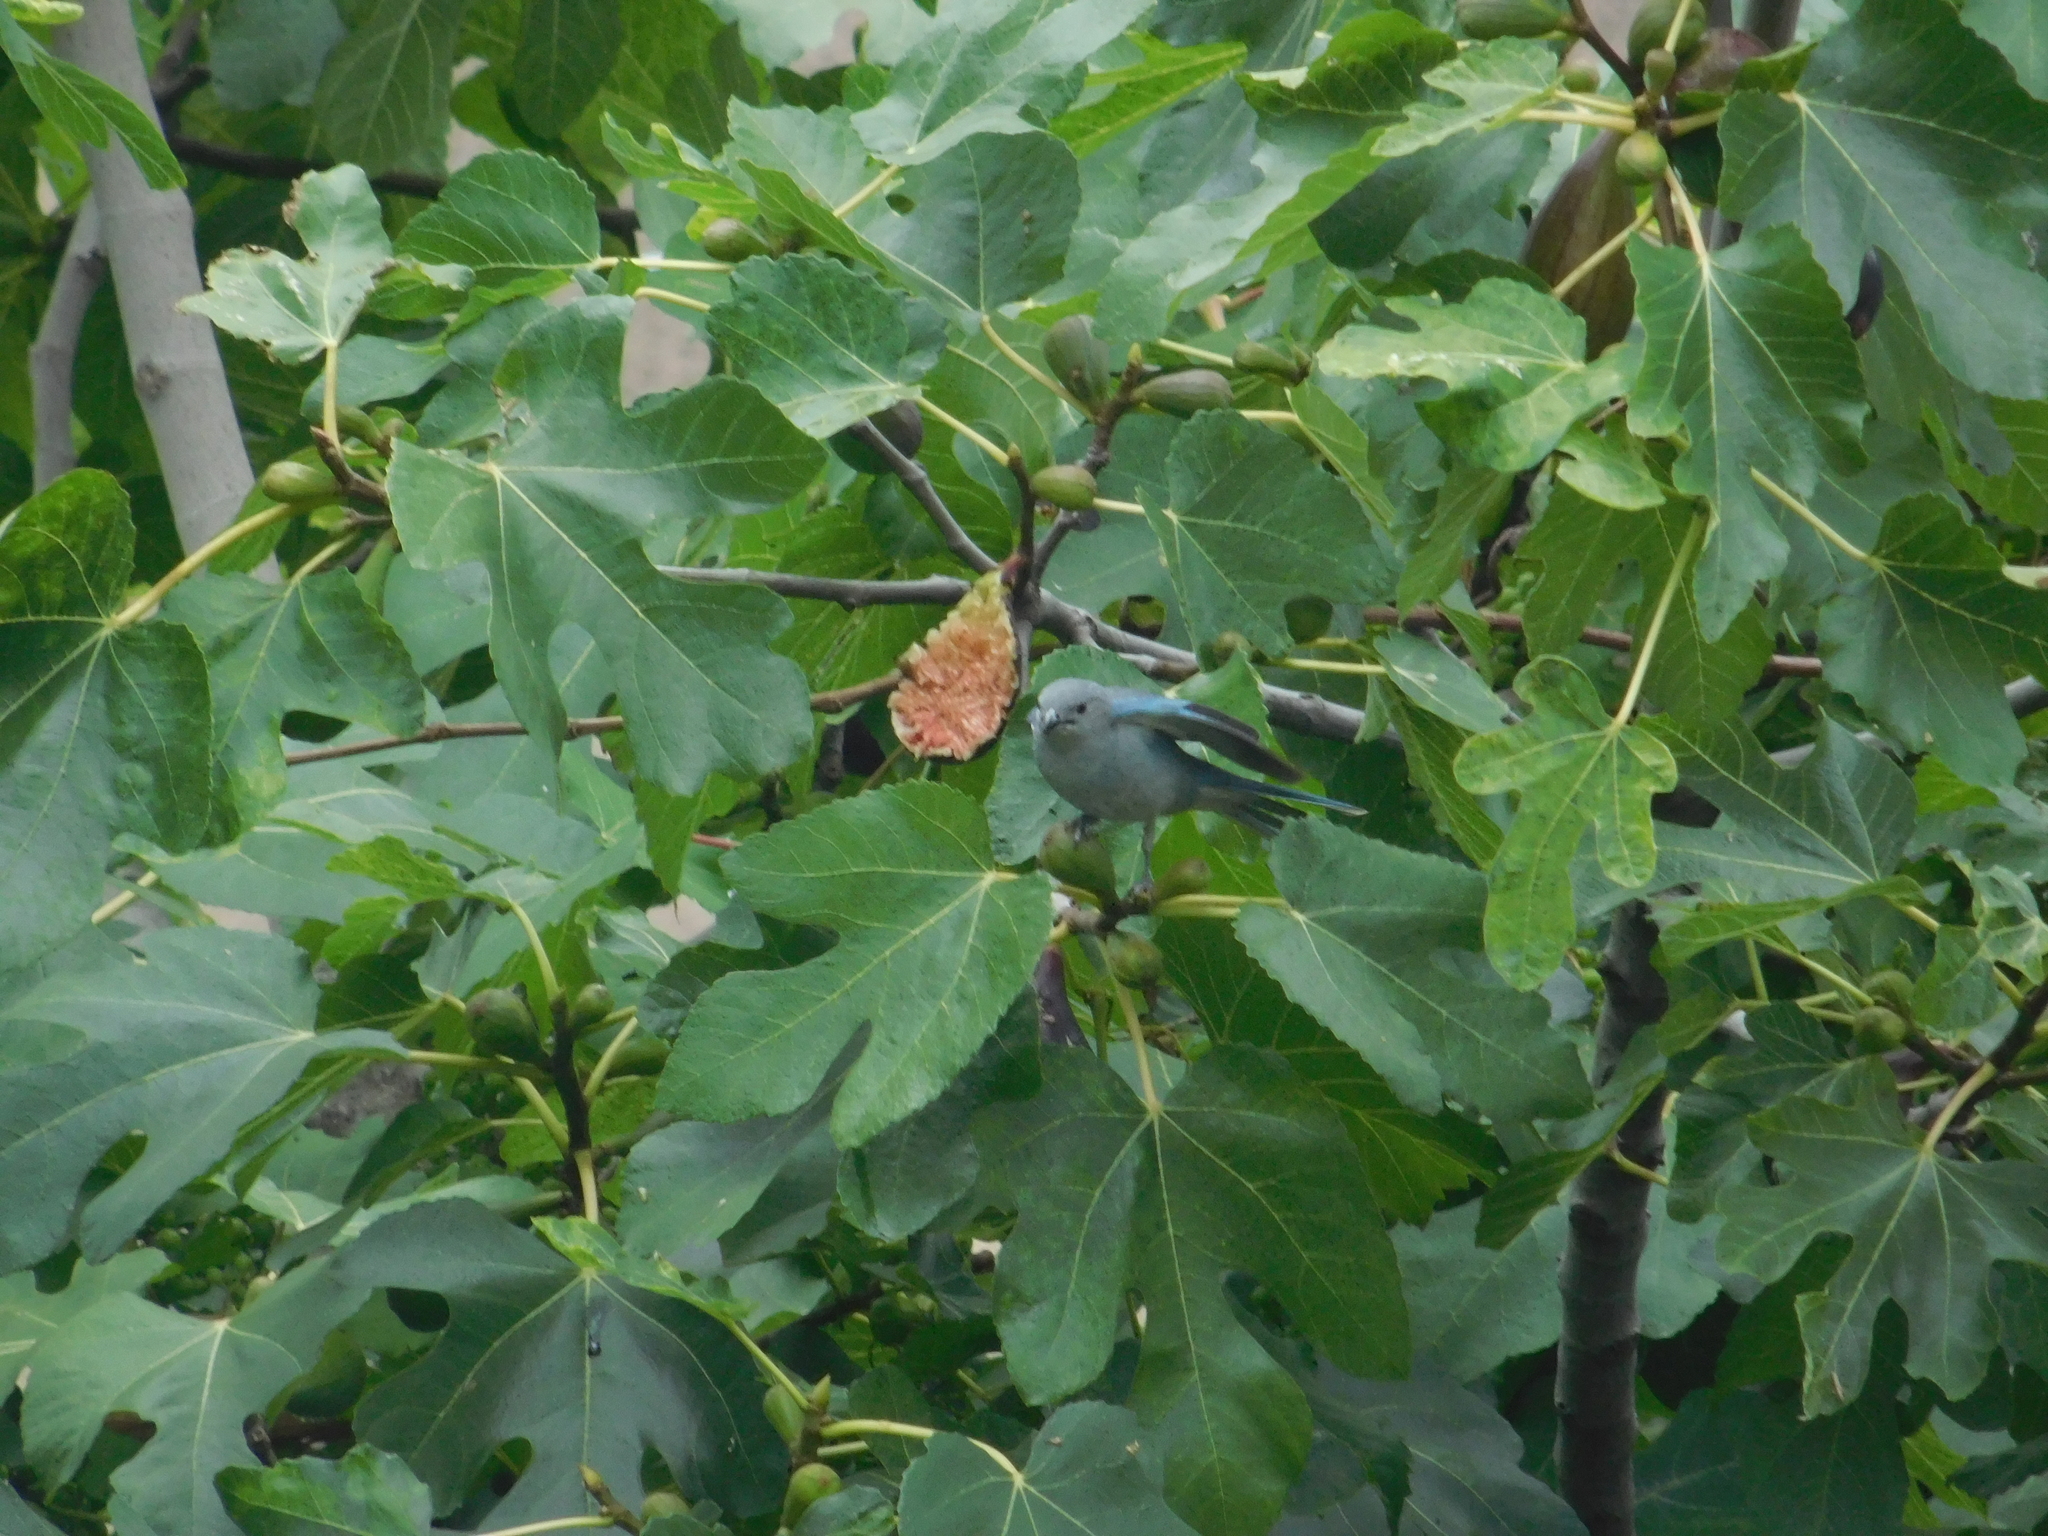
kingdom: Animalia
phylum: Chordata
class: Aves
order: Passeriformes
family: Thraupidae
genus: Thraupis
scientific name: Thraupis sayaca
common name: Sayaca tanager
